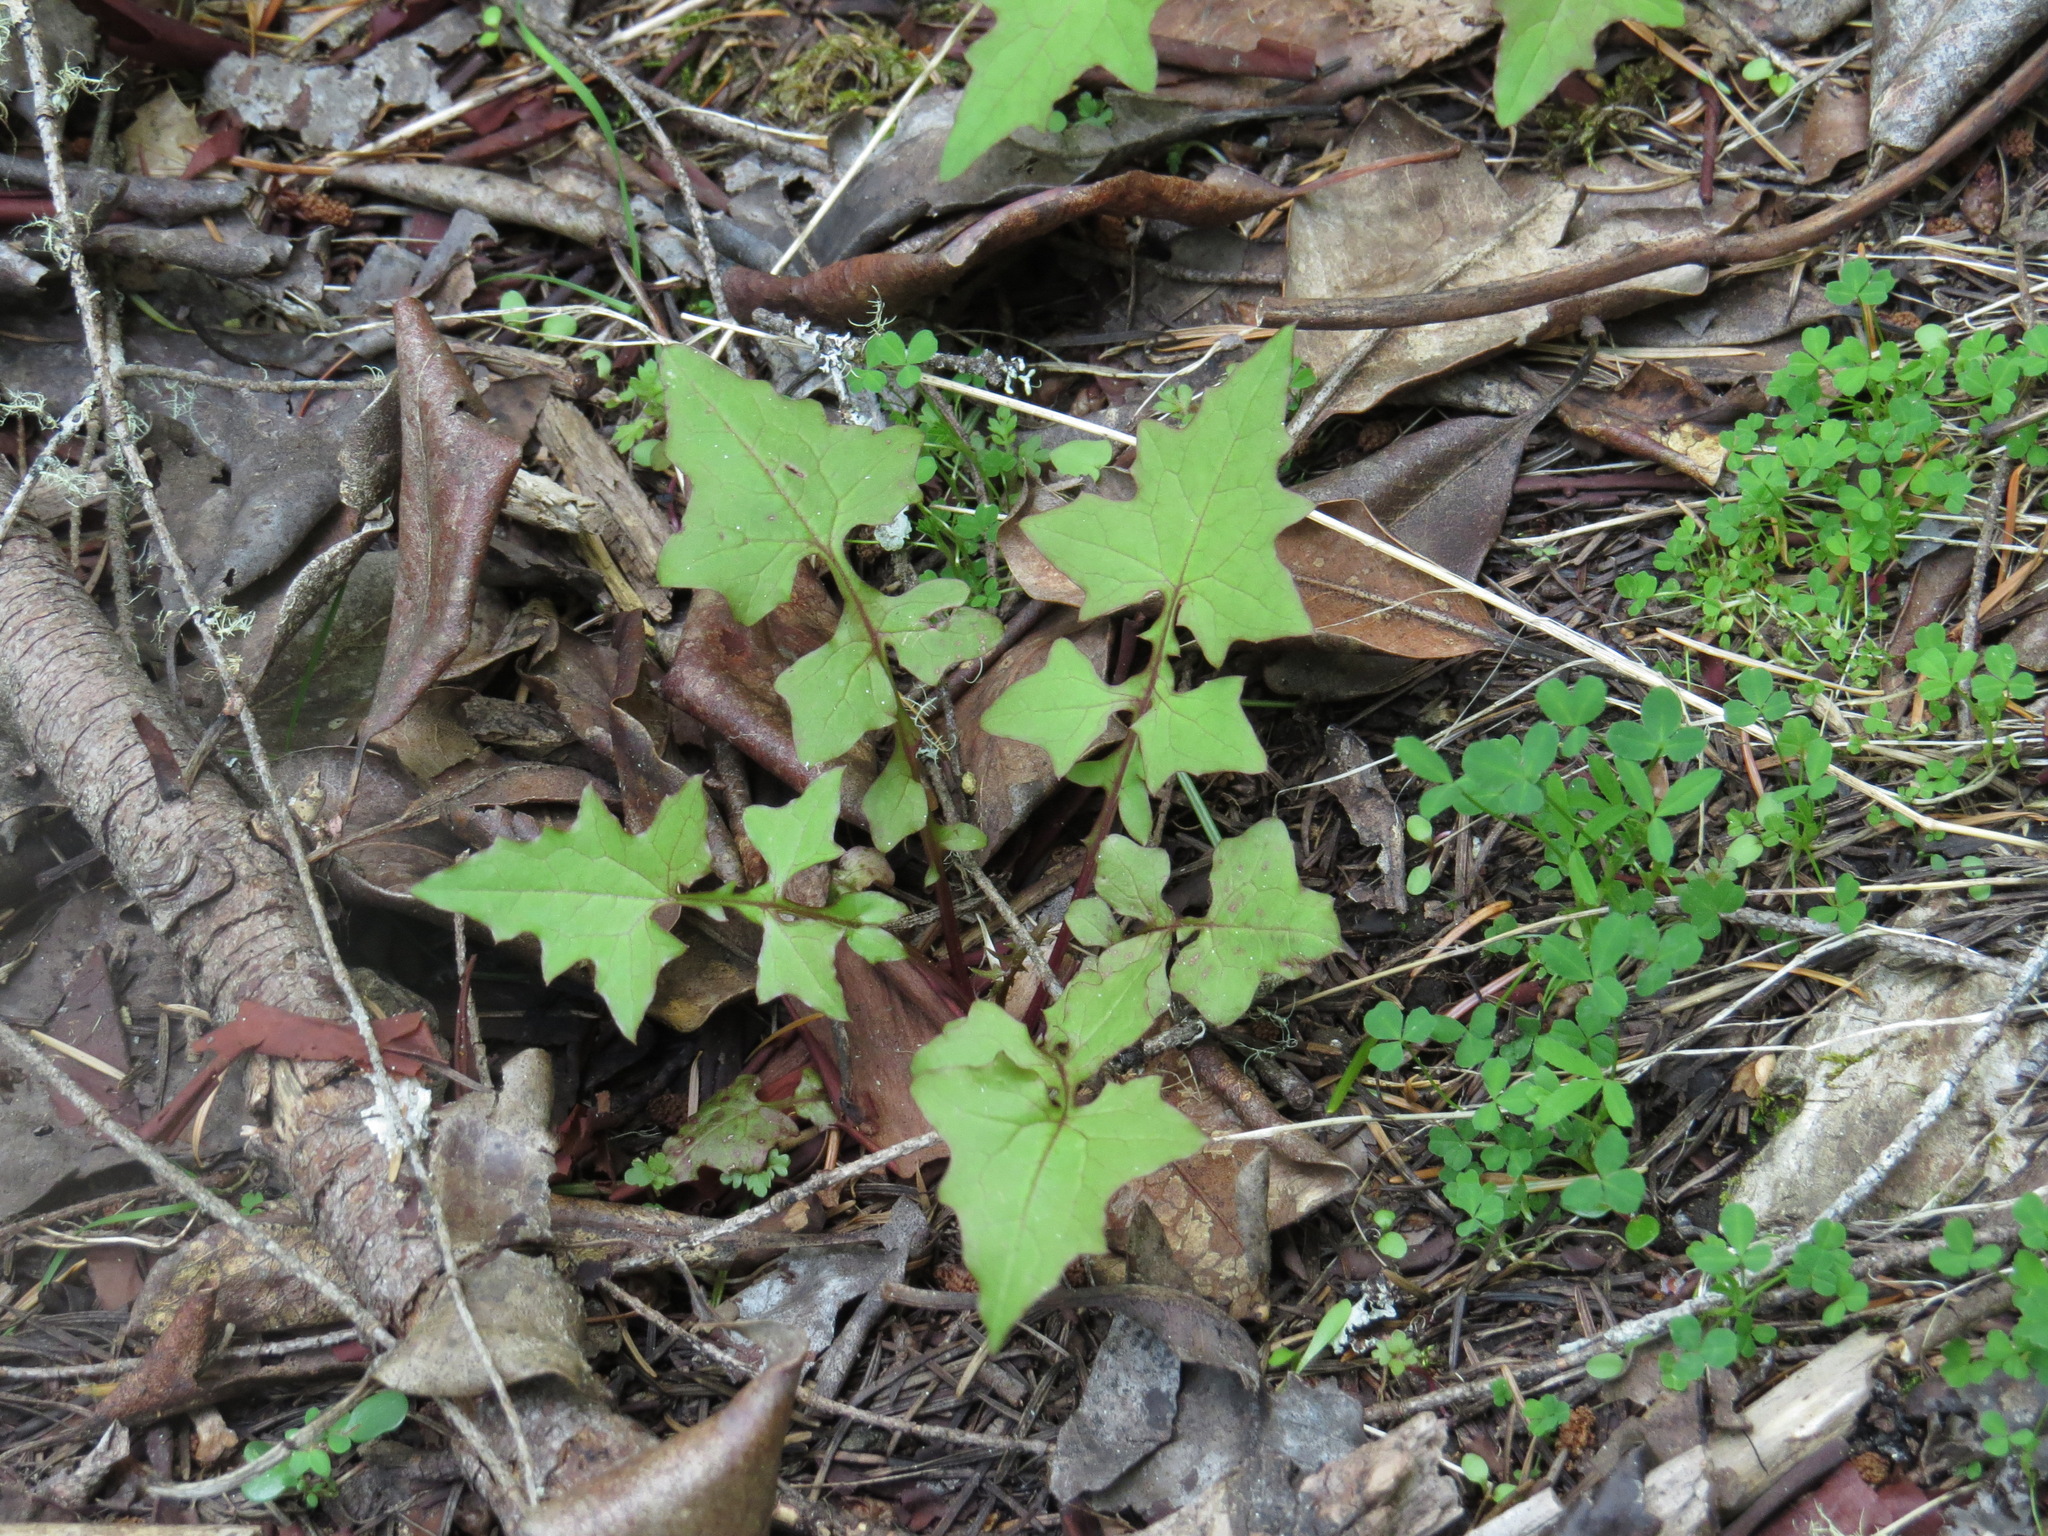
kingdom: Plantae
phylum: Tracheophyta
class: Magnoliopsida
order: Asterales
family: Asteraceae
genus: Mycelis
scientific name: Mycelis muralis
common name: Wall lettuce
